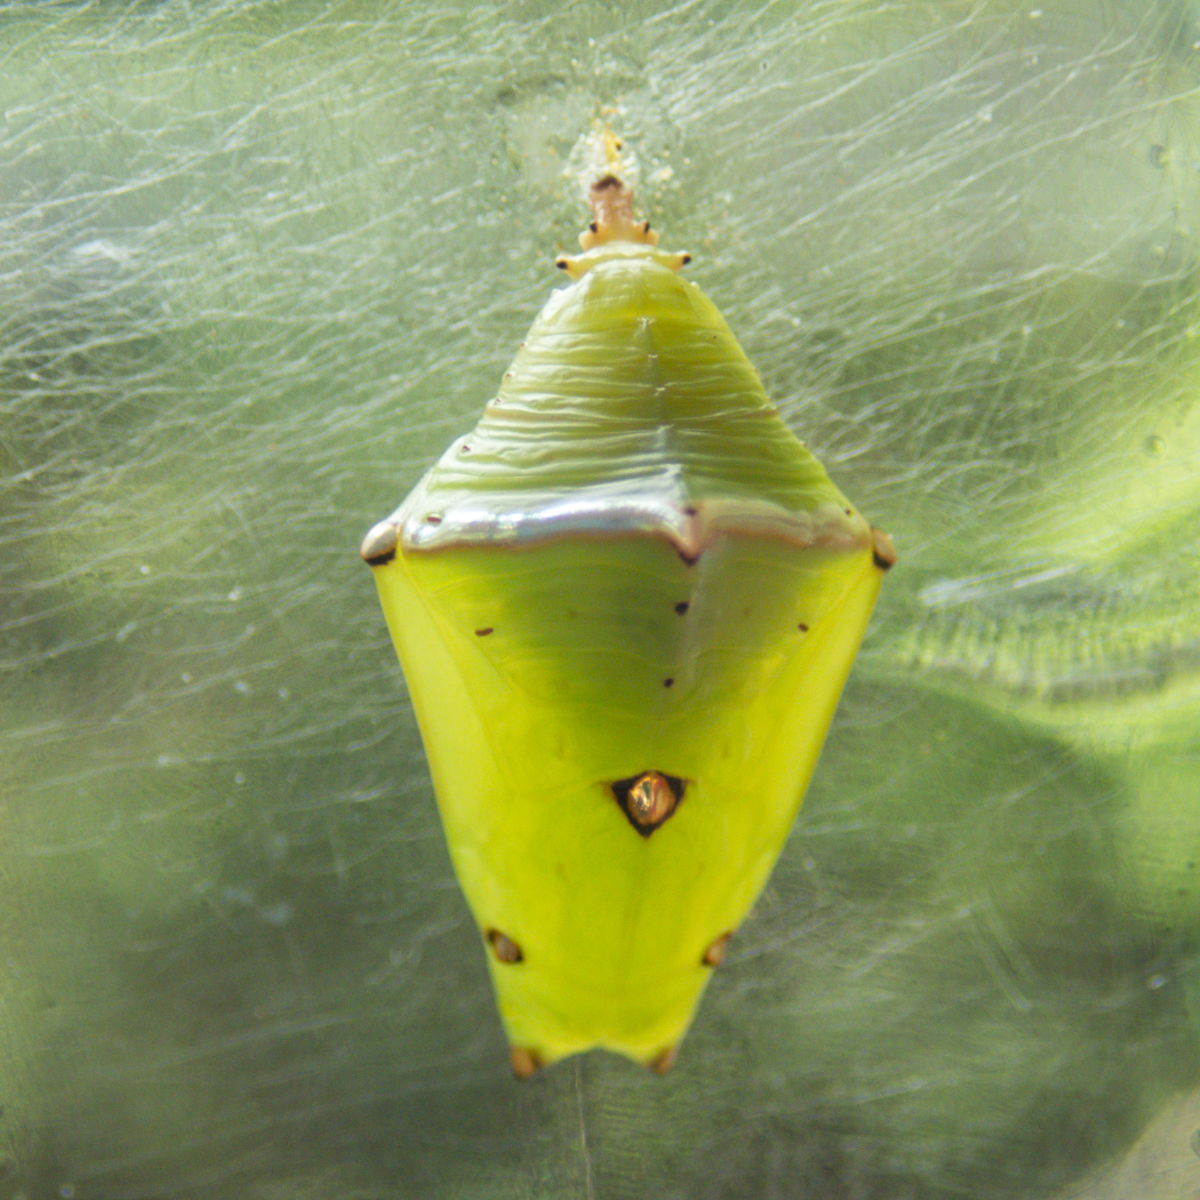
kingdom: Animalia
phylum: Arthropoda
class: Insecta
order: Lepidoptera
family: Nymphalidae
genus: Euthalia
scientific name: Euthalia phemius
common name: White-edged blue baron
